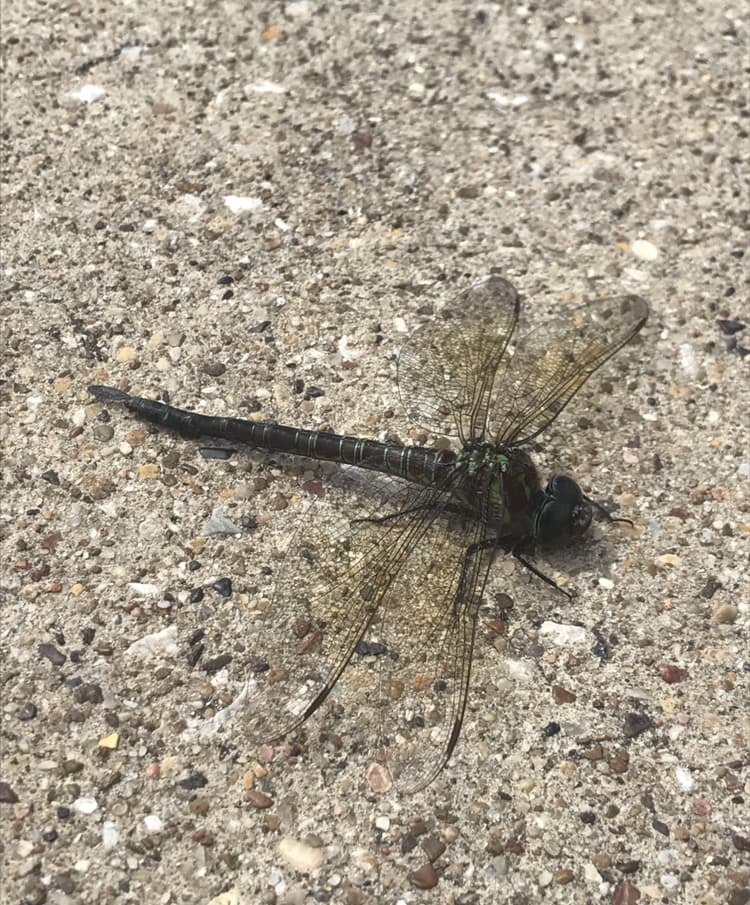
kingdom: Animalia
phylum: Arthropoda
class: Insecta
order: Odonata
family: Aeshnidae
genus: Epiaeschna
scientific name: Epiaeschna heros
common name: Swamp darner
